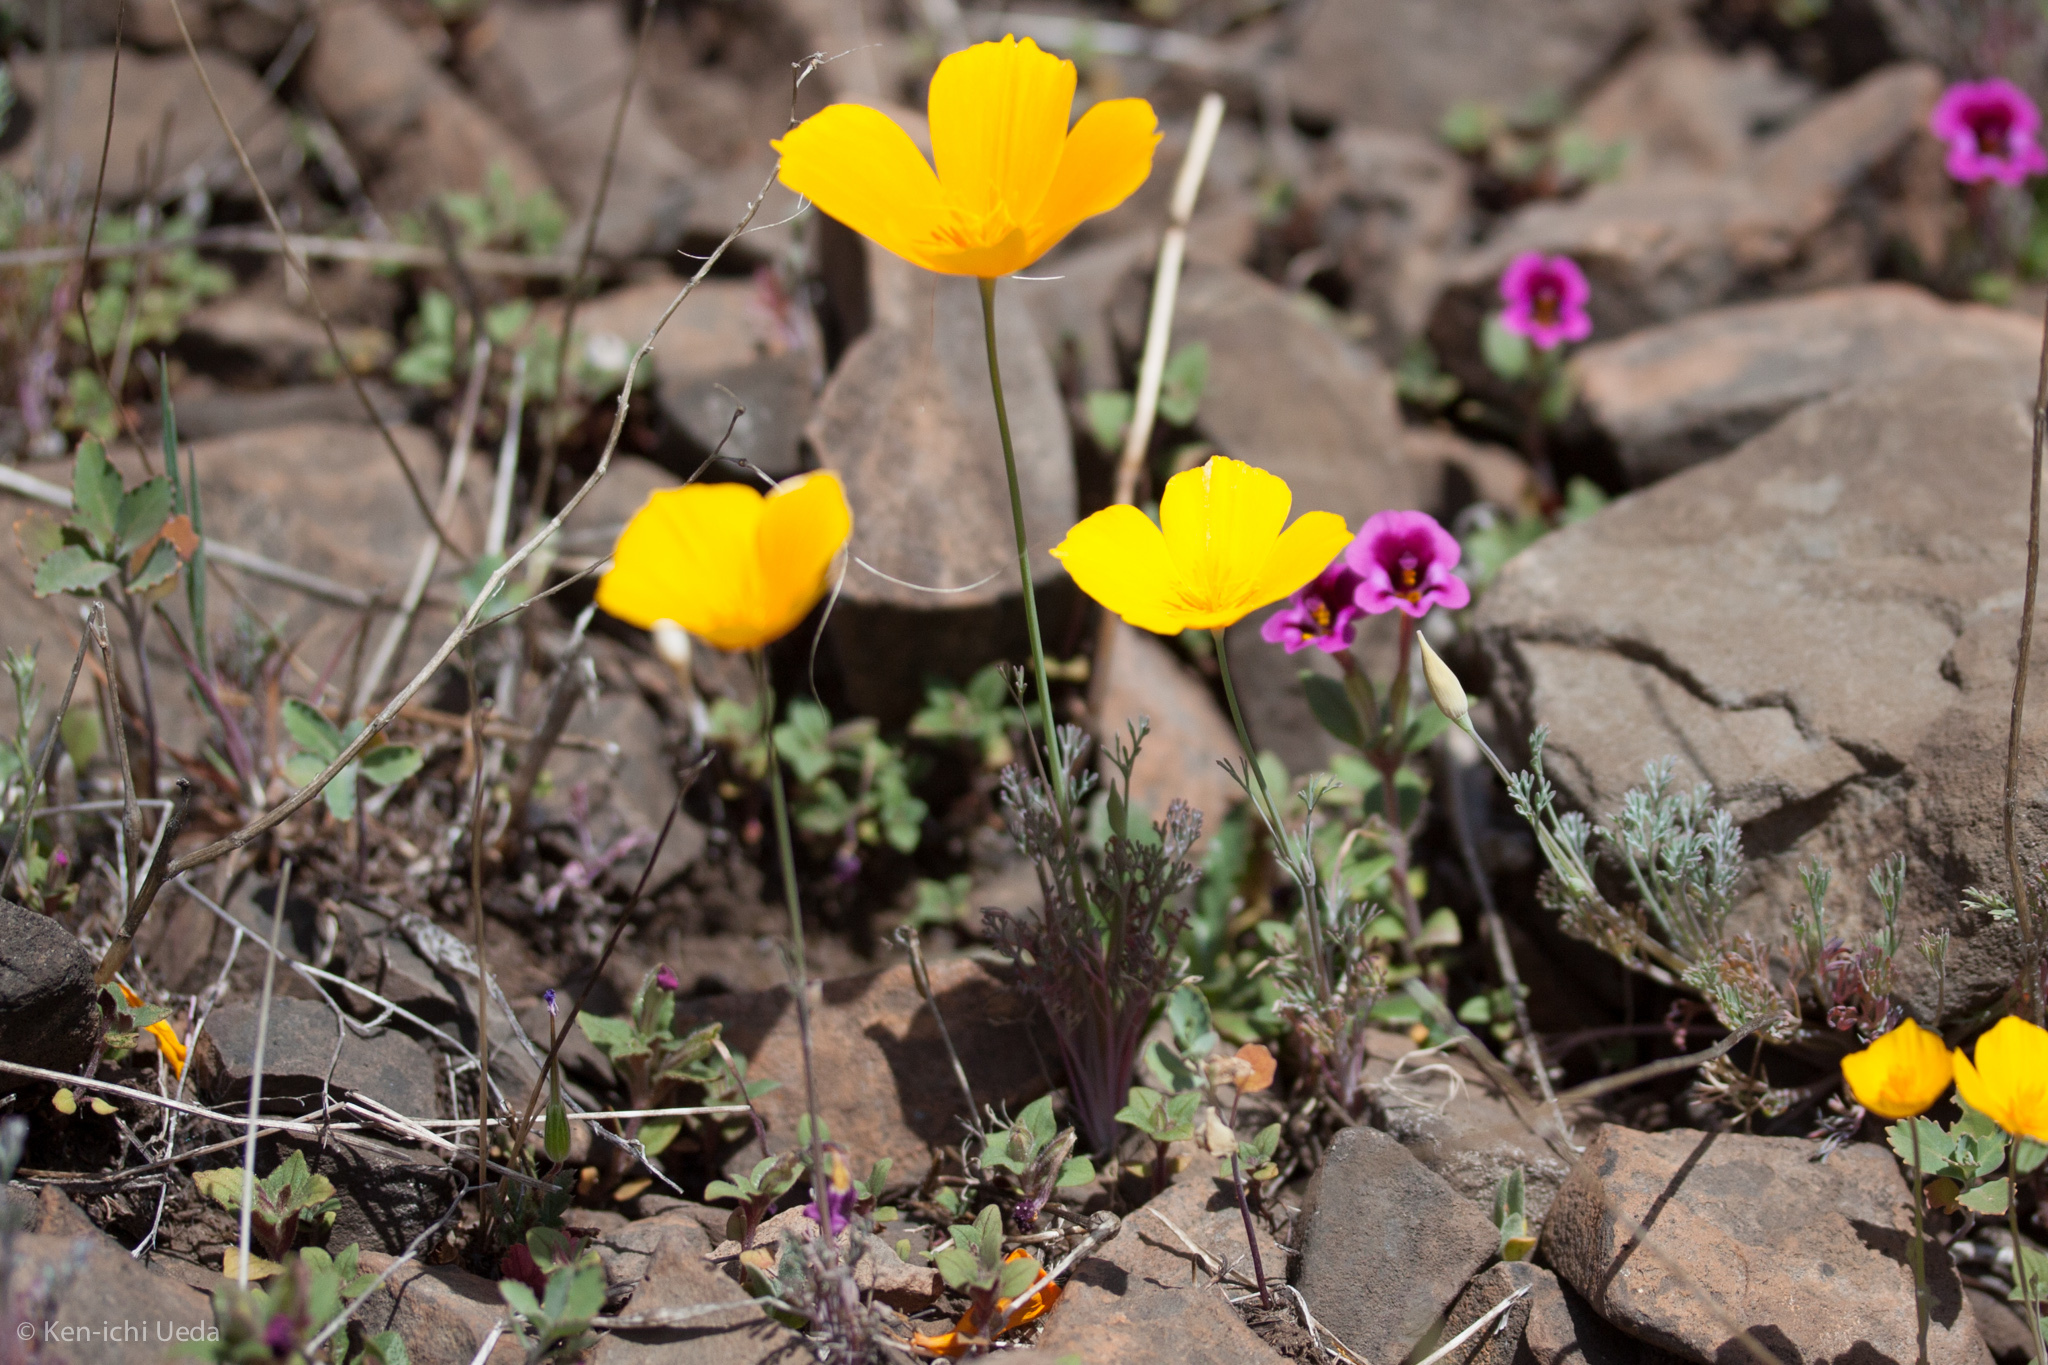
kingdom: Plantae
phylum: Tracheophyta
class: Magnoliopsida
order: Ranunculales
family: Papaveraceae
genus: Eschscholzia
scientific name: Eschscholzia caespitosa
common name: Tufted california-poppy
